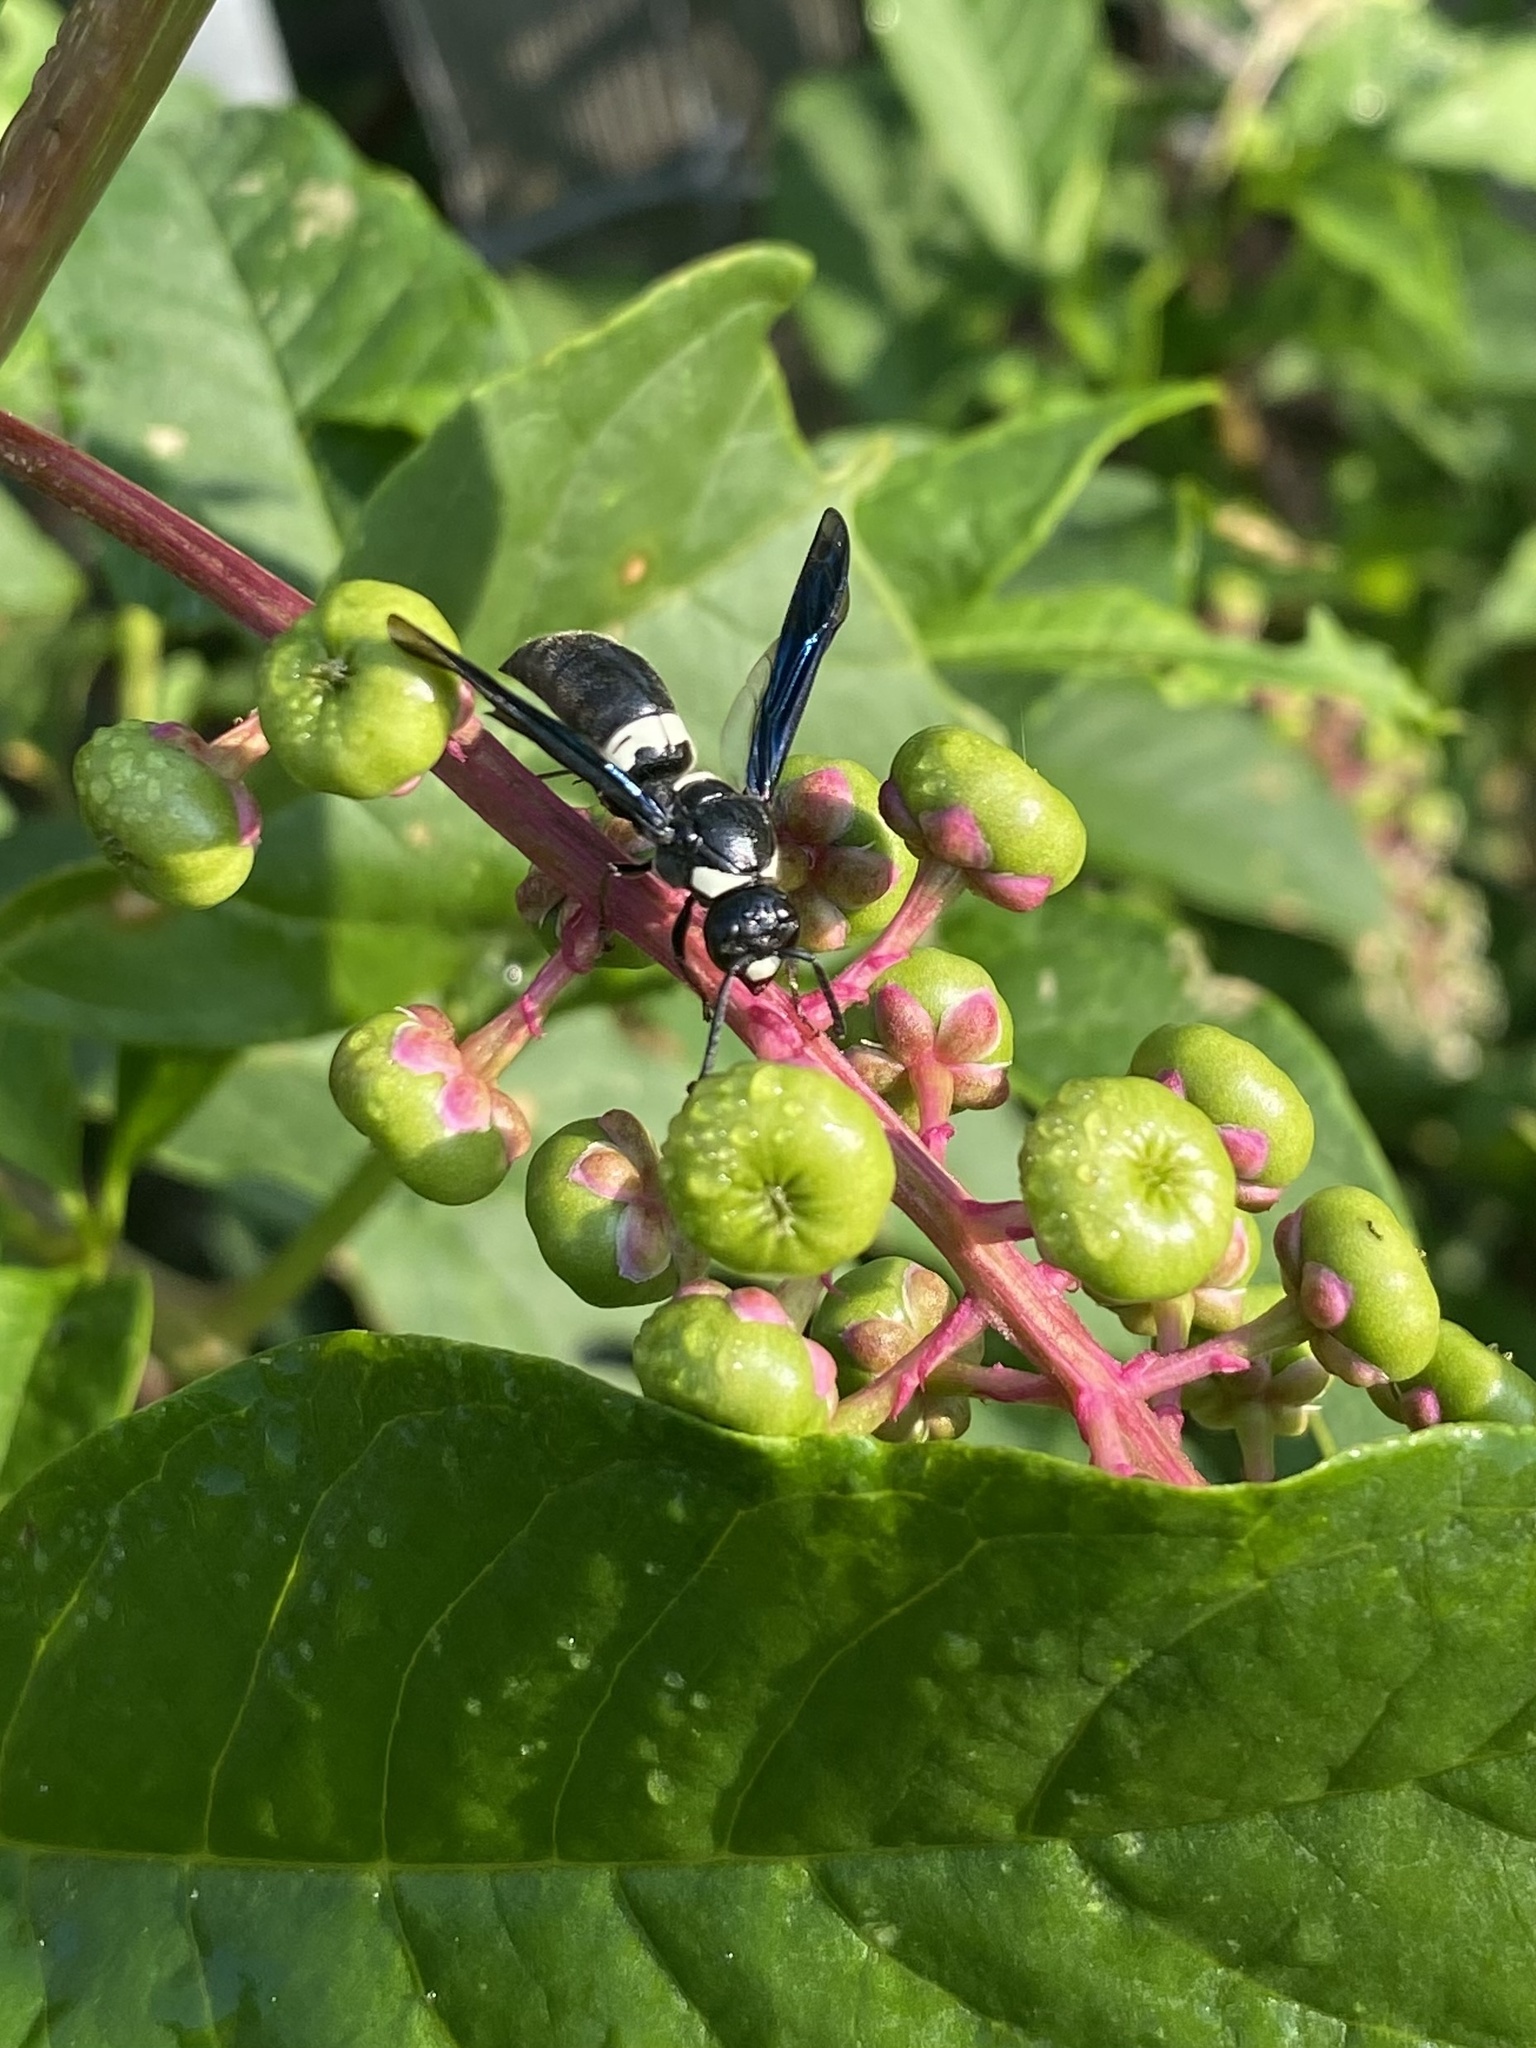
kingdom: Animalia
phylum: Arthropoda
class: Insecta
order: Hymenoptera
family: Eumenidae
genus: Monobia
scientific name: Monobia quadridens
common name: Four-toothed mason wasp
